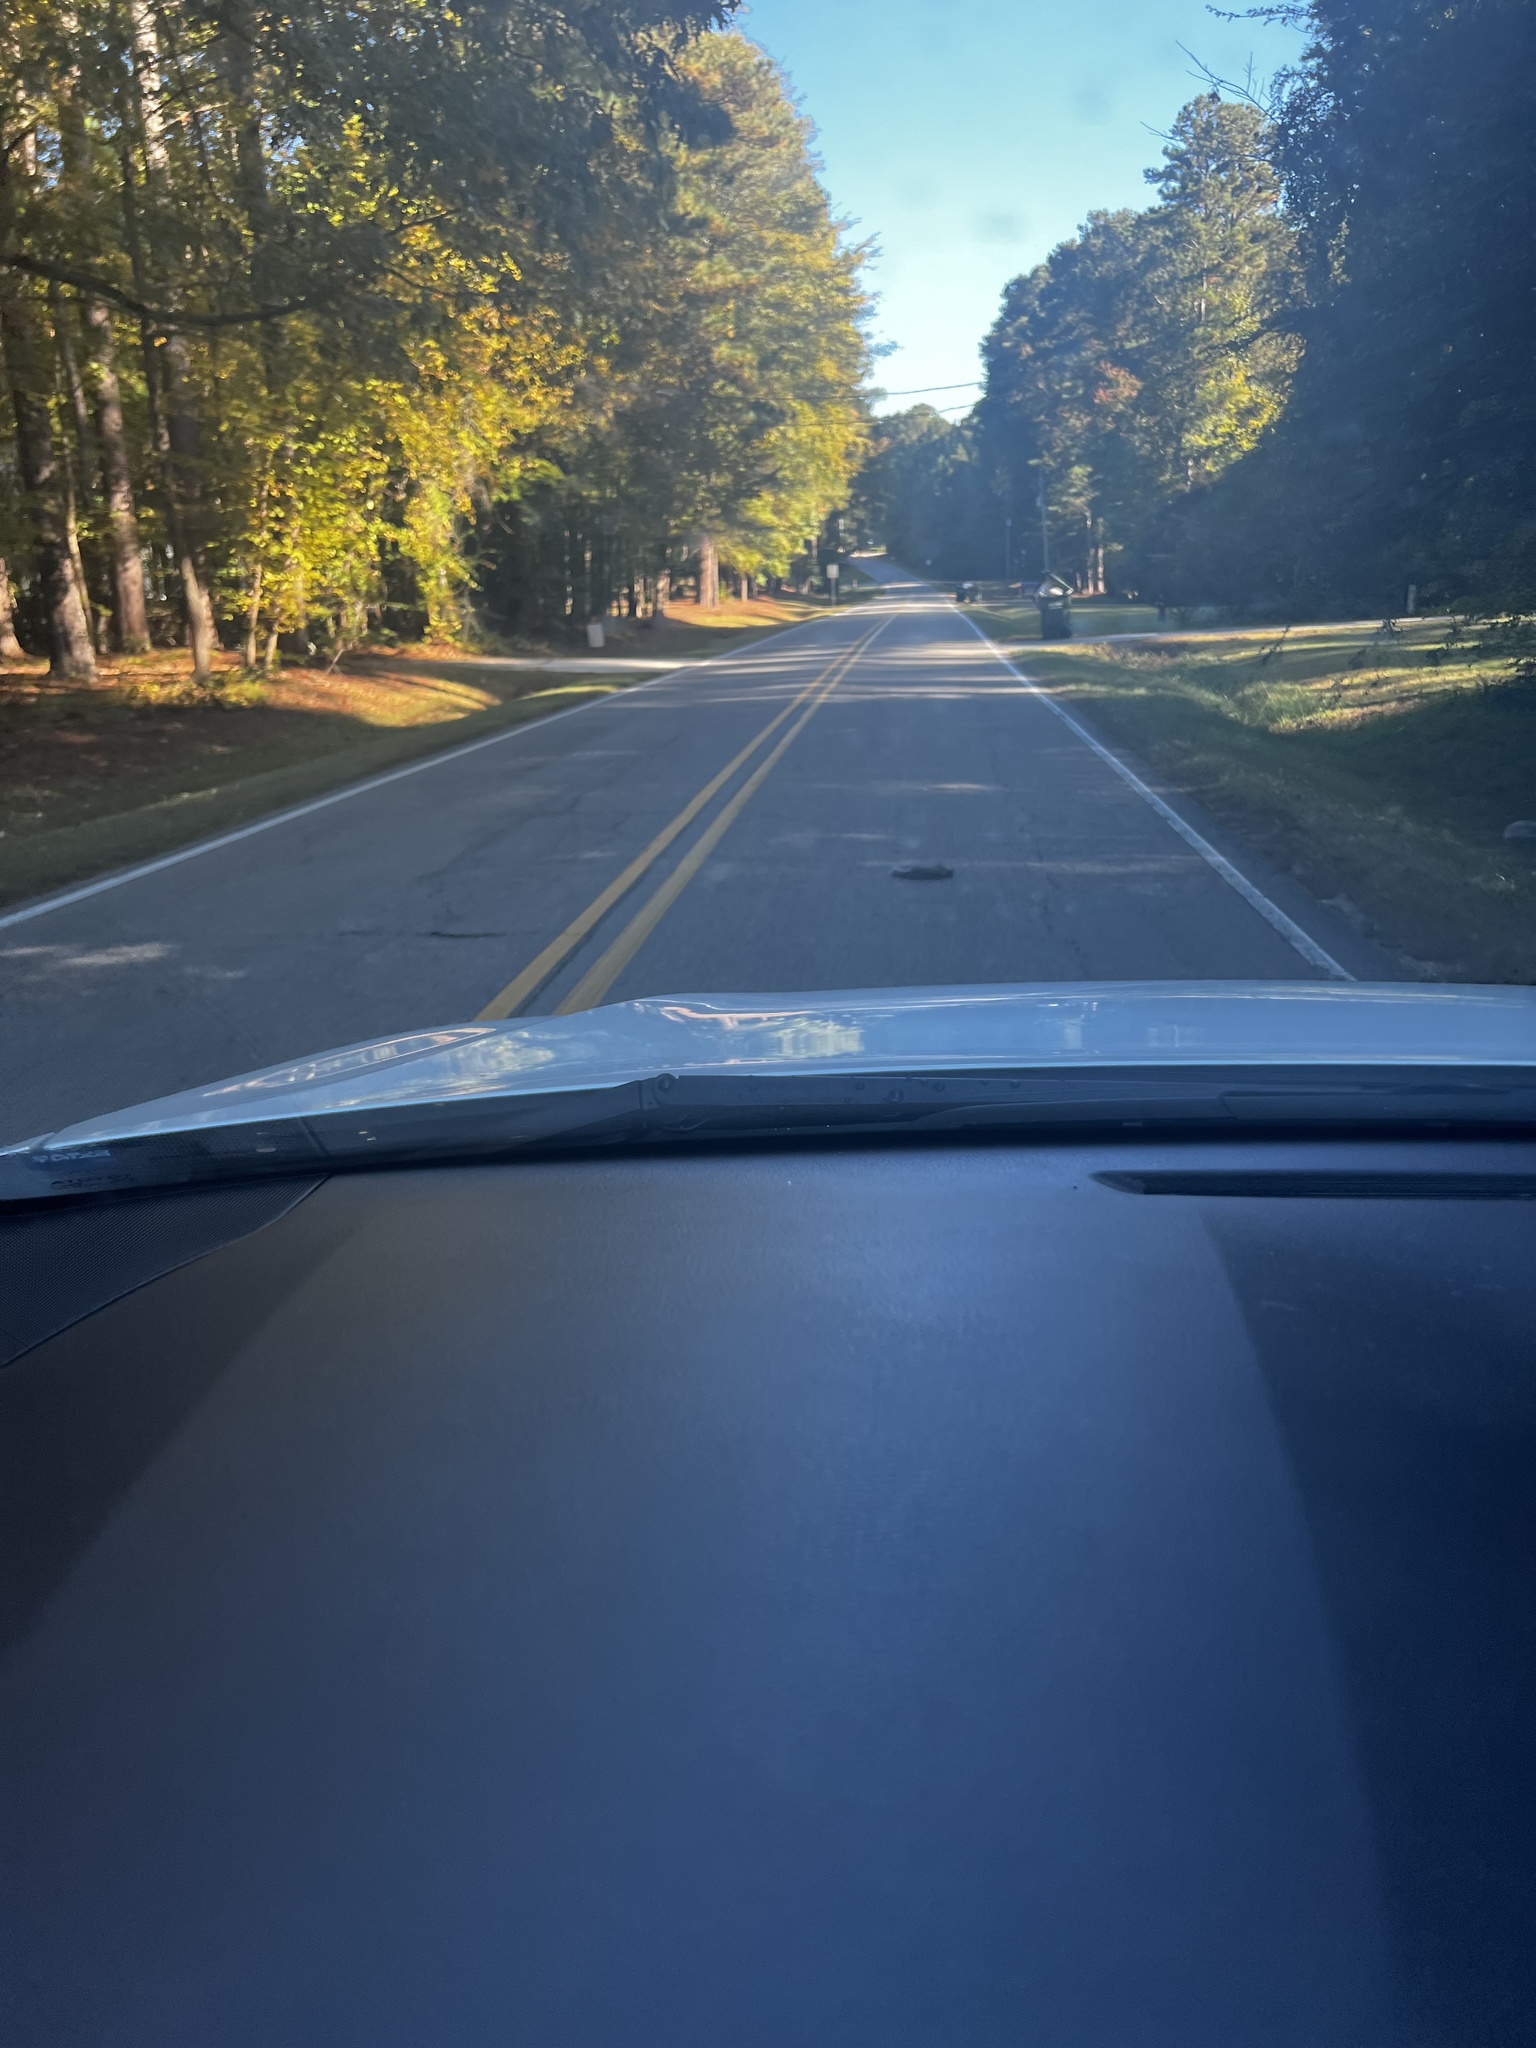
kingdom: Animalia
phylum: Chordata
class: Mammalia
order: Rodentia
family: Sciuridae
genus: Sciurus
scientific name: Sciurus carolinensis
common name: Eastern gray squirrel
